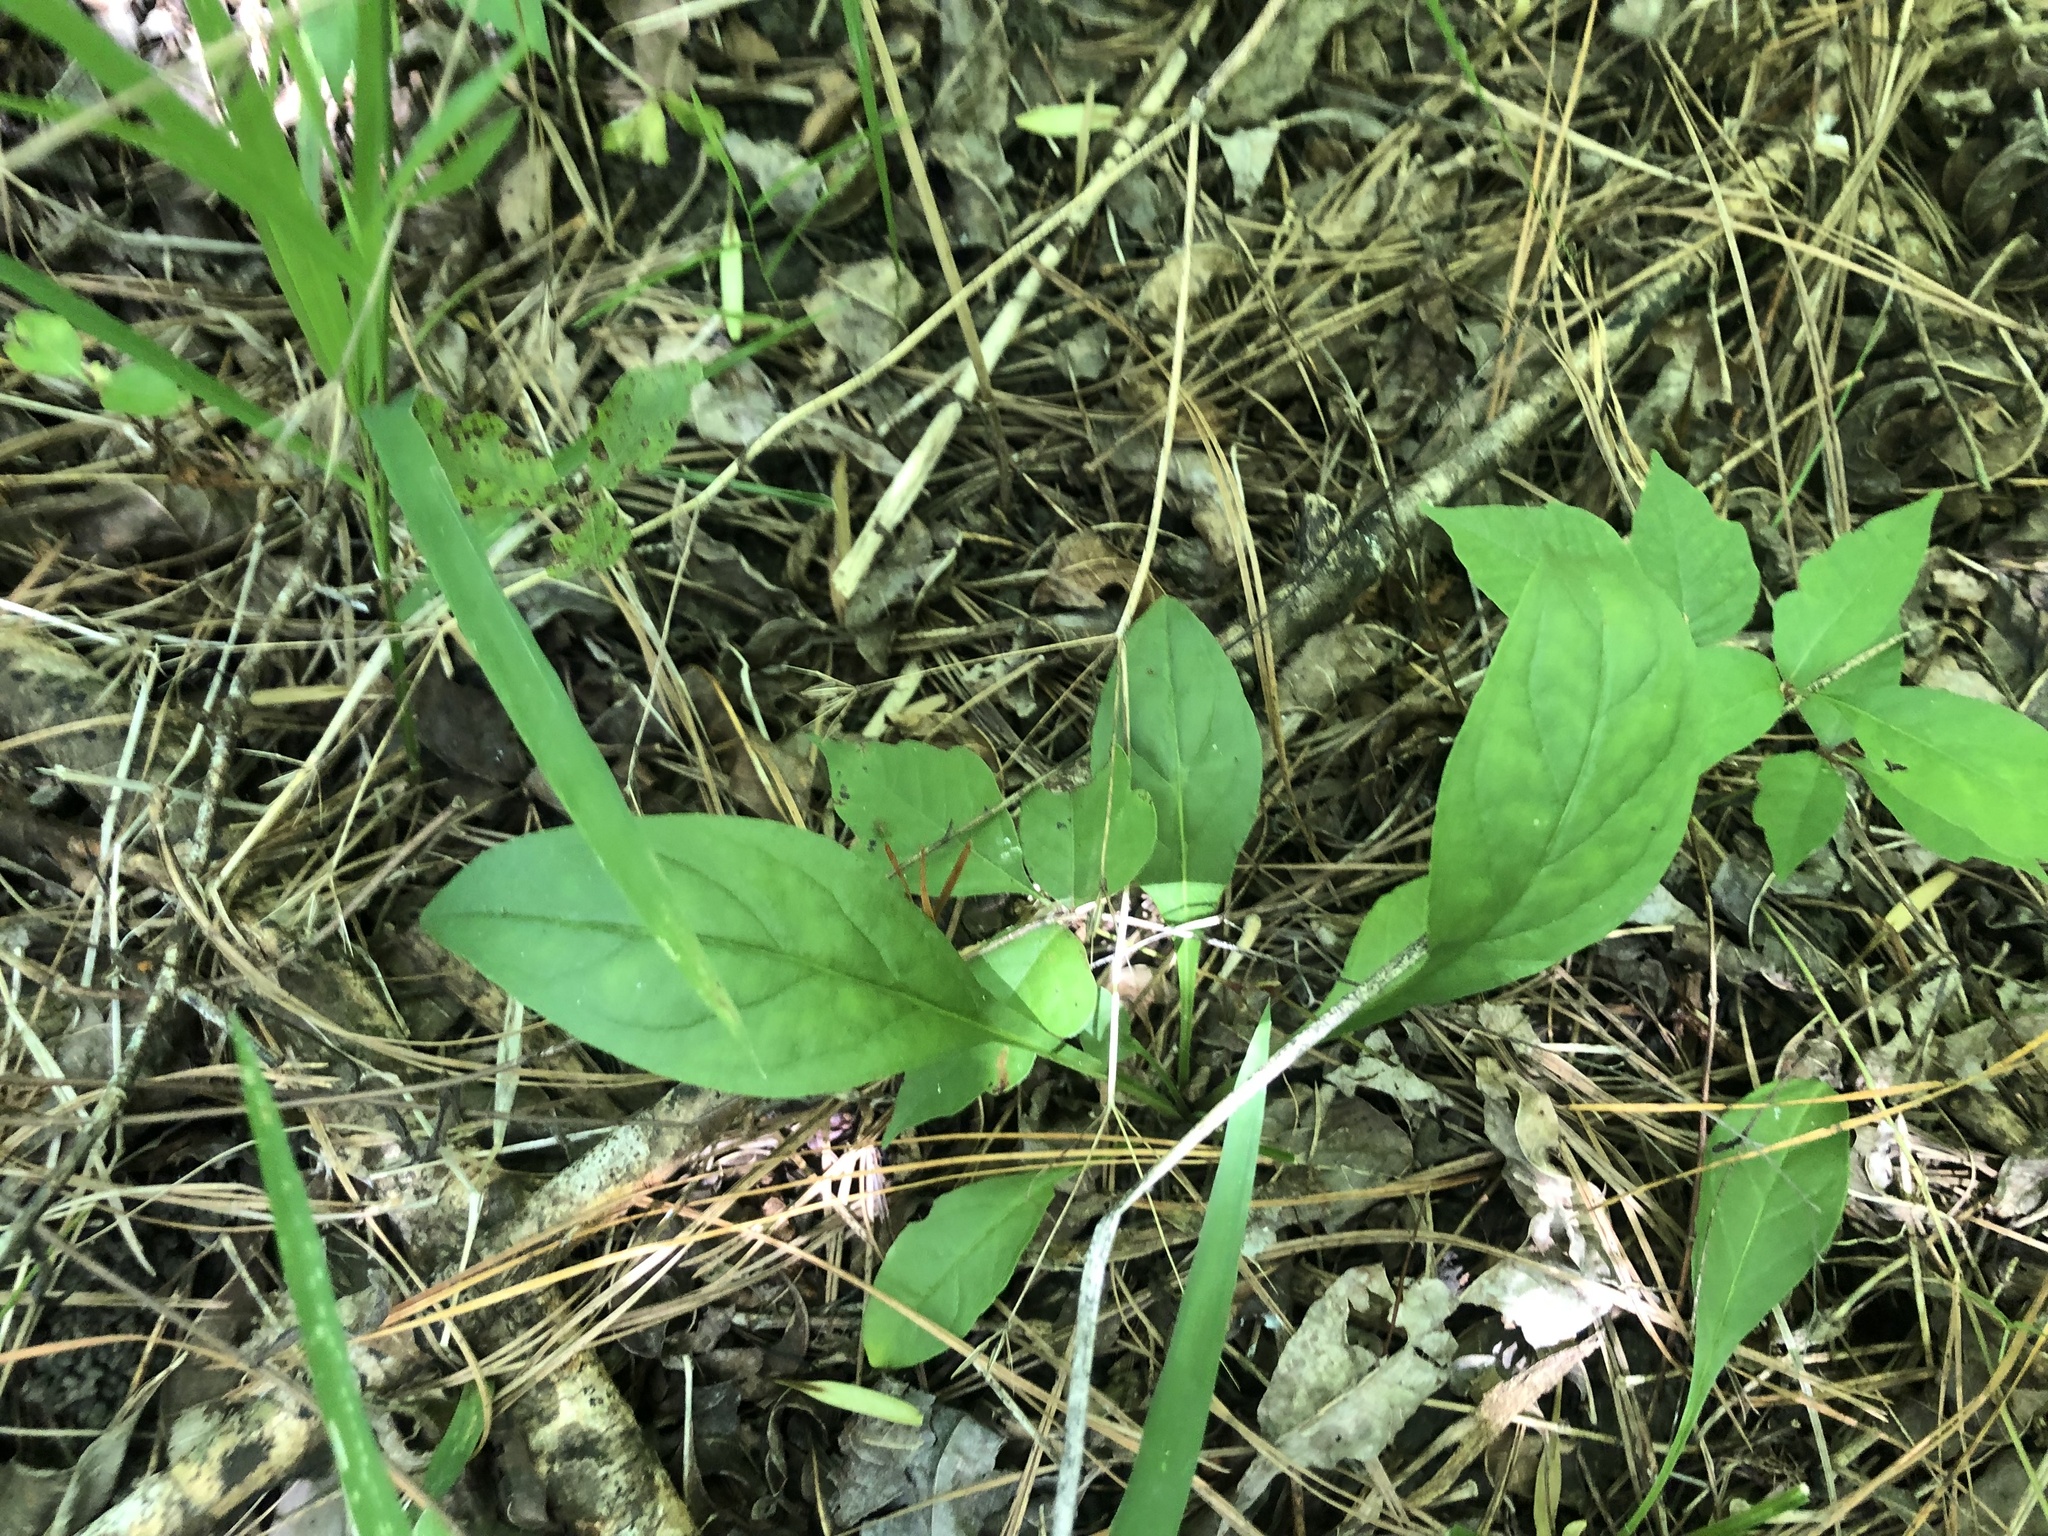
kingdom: Plantae
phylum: Tracheophyta
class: Magnoliopsida
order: Lamiales
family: Plantaginaceae
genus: Penstemon
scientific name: Penstemon laevigatus
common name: Eastern beardtongue
